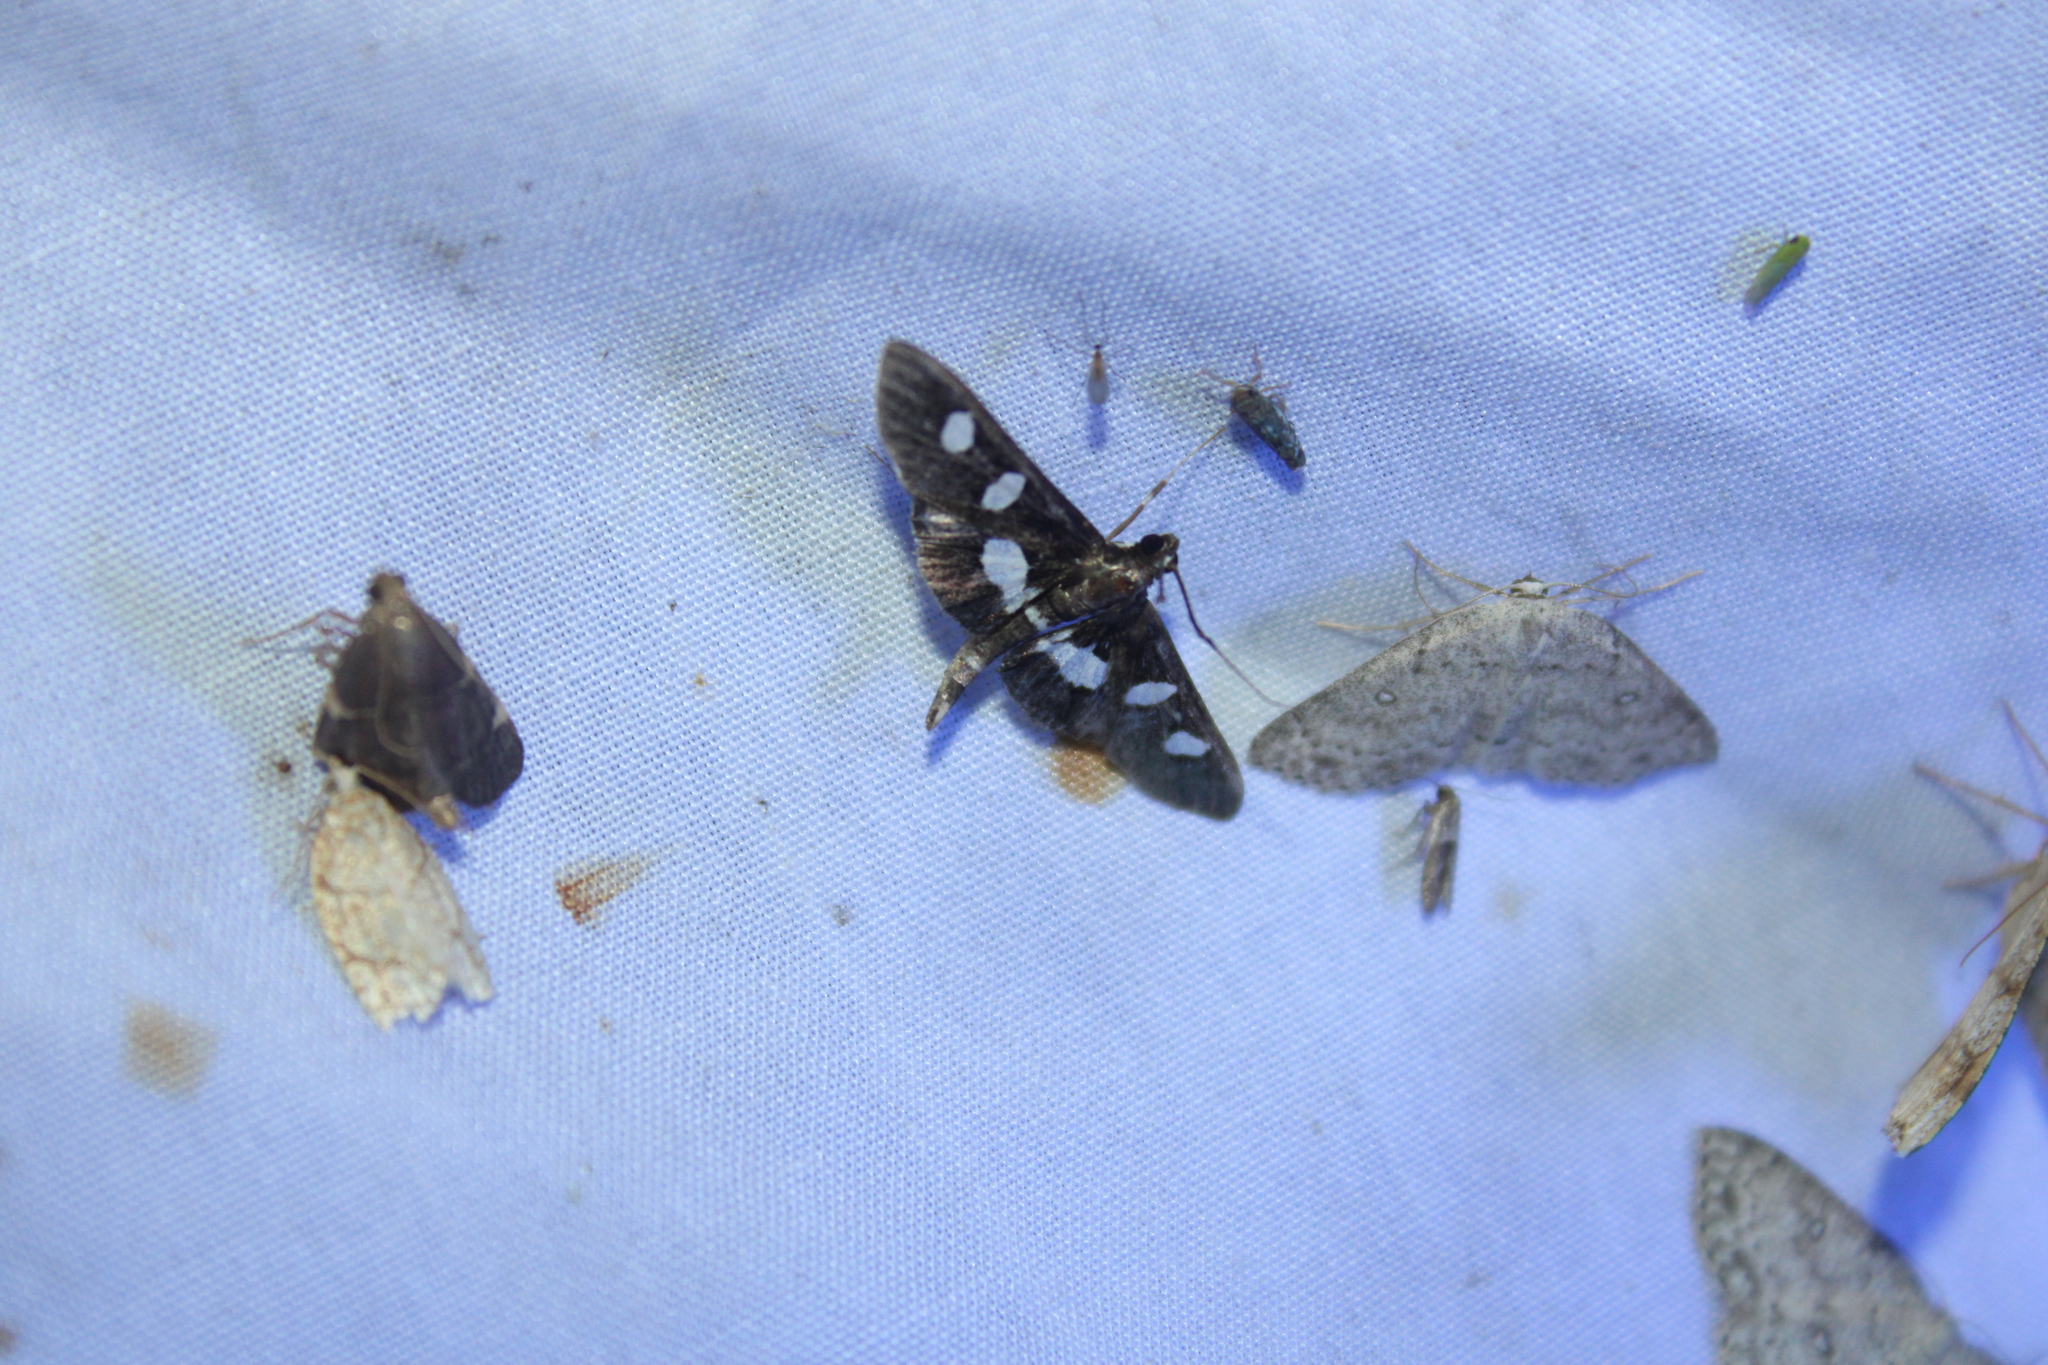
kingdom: Animalia
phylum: Arthropoda
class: Insecta
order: Lepidoptera
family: Crambidae
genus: Desmia
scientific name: Desmia
